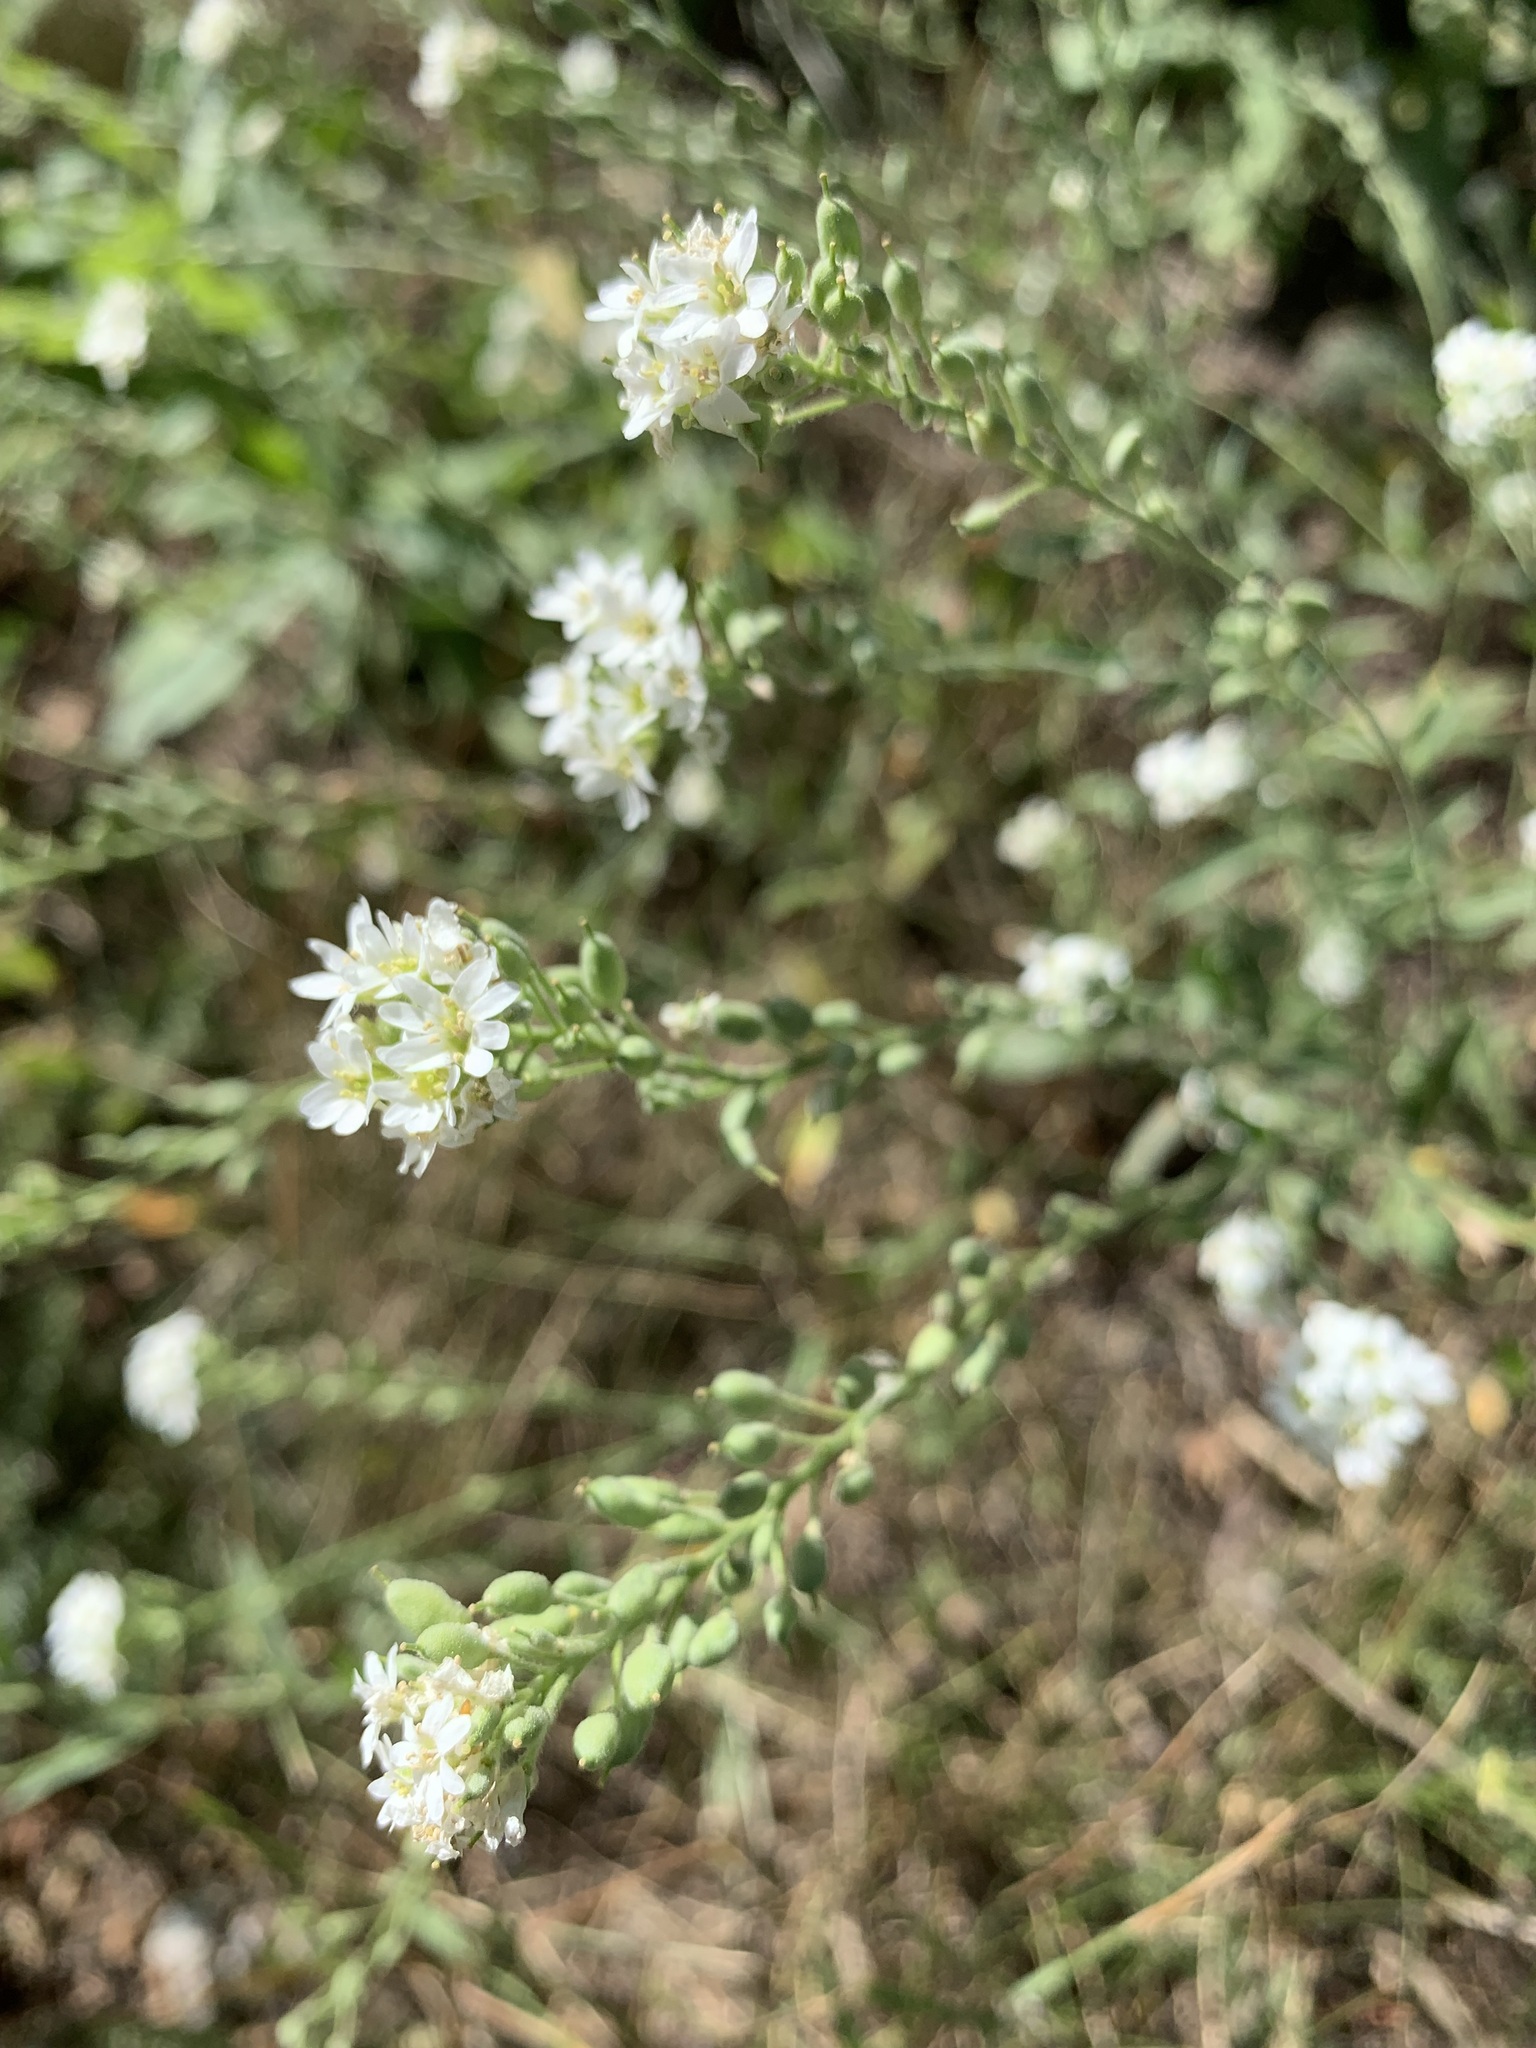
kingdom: Plantae
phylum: Tracheophyta
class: Magnoliopsida
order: Brassicales
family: Brassicaceae
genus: Berteroa
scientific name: Berteroa incana
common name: Hoary alison
